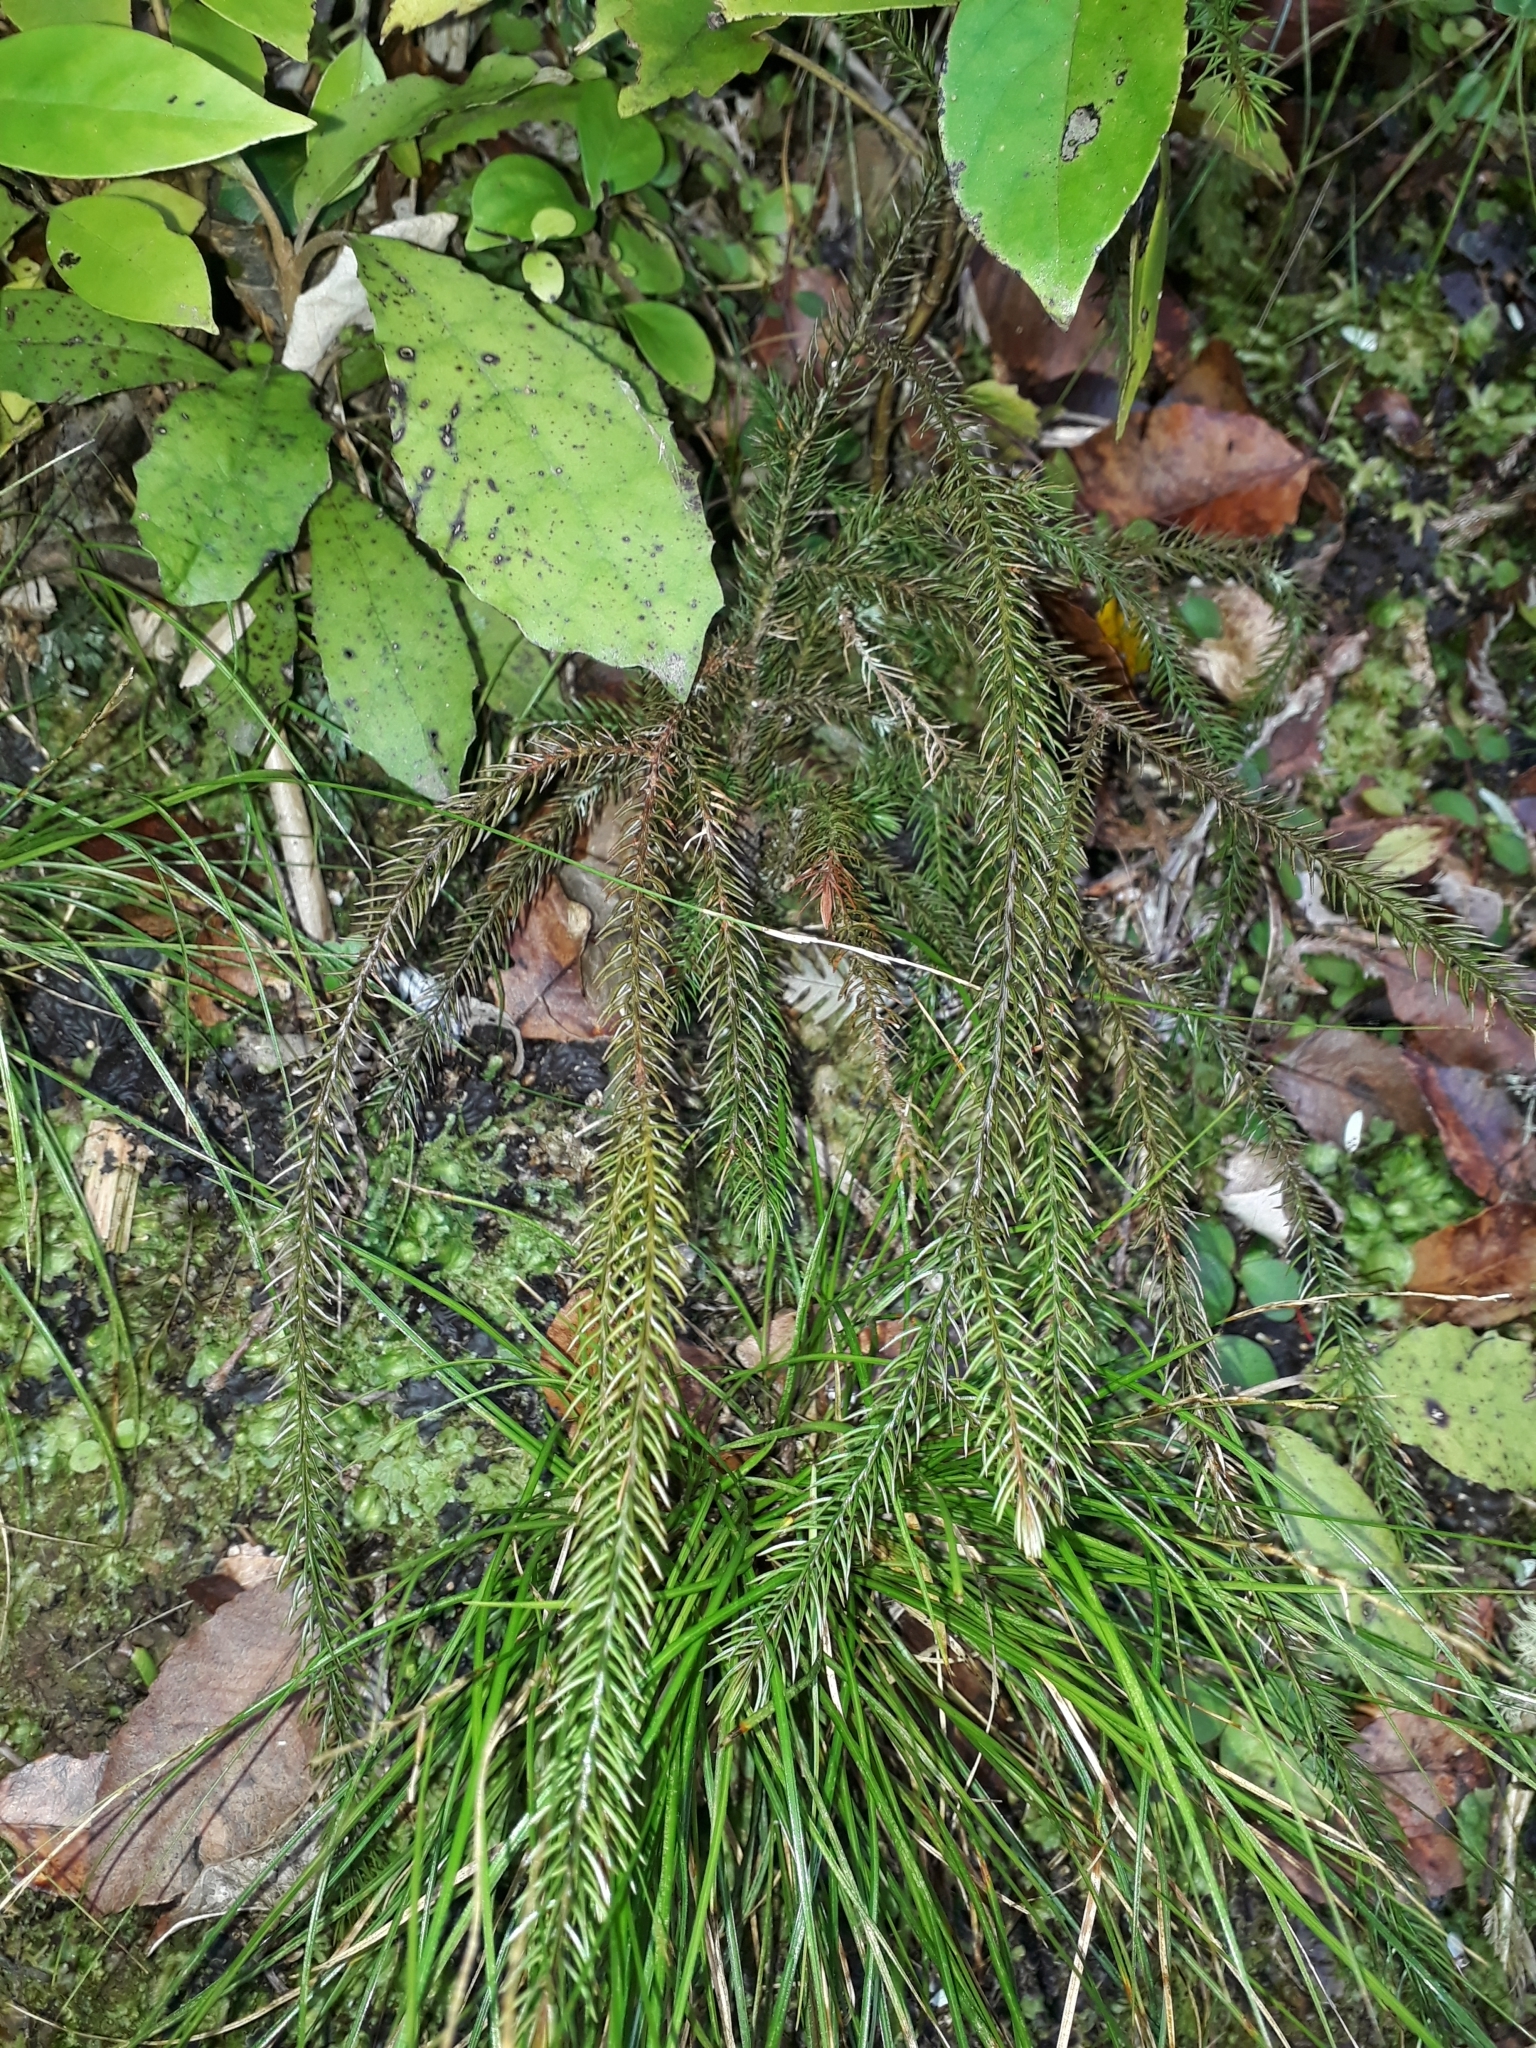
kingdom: Plantae
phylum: Tracheophyta
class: Pinopsida
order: Pinales
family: Podocarpaceae
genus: Dacrydium
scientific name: Dacrydium cupressinum
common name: Red pine
